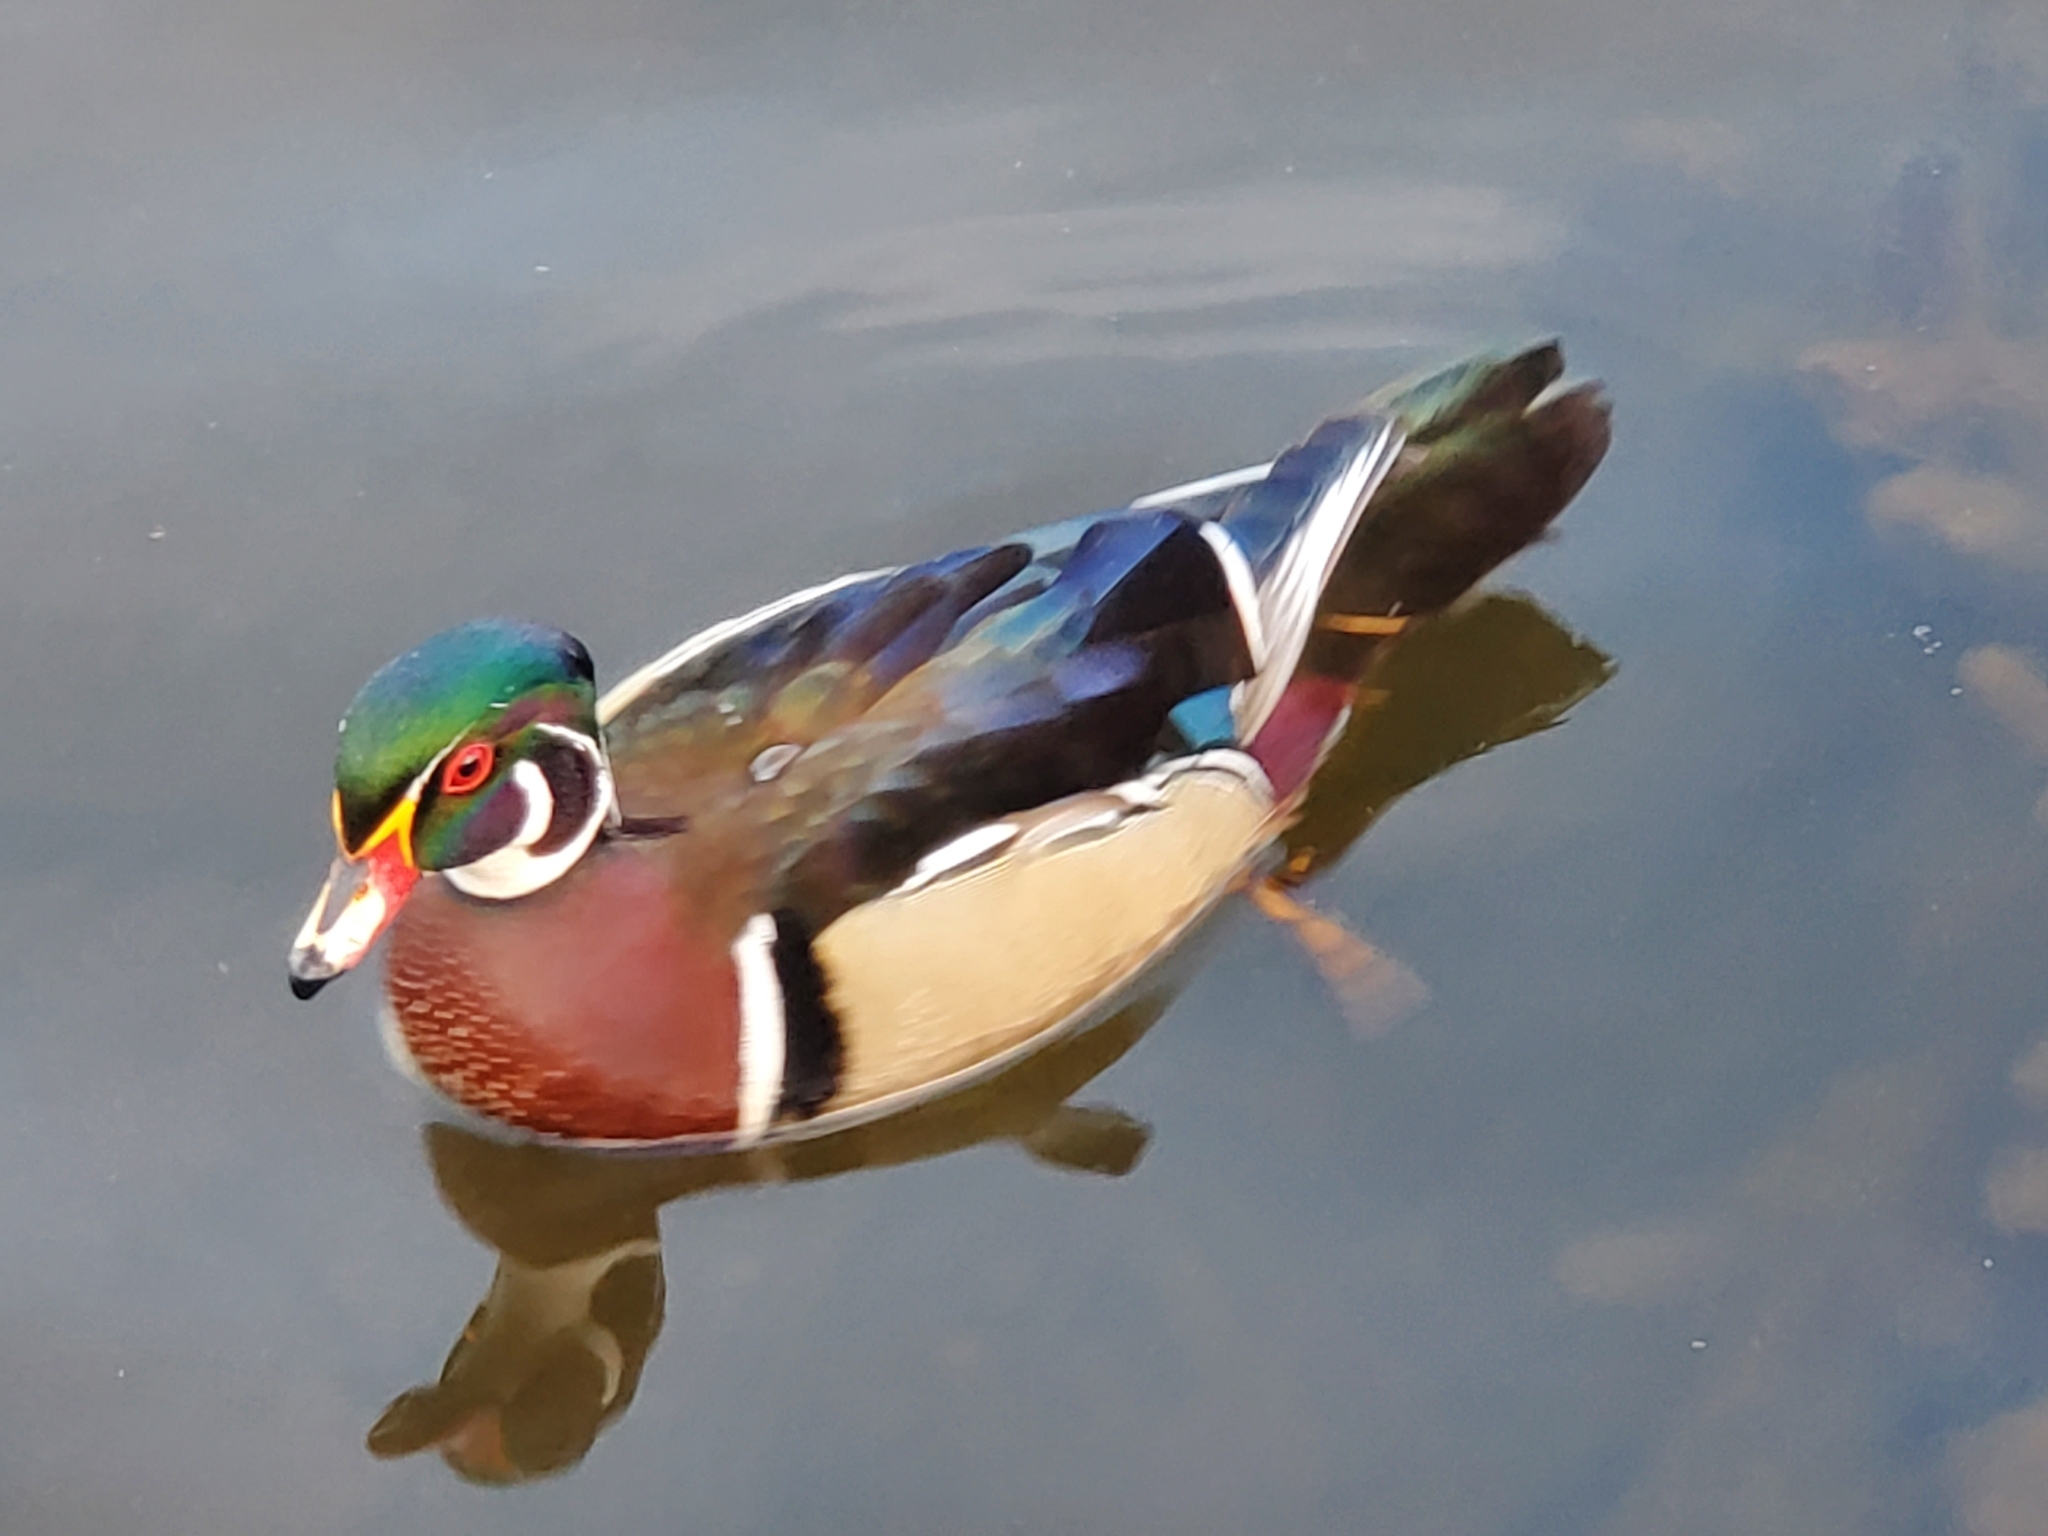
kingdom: Animalia
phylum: Chordata
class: Aves
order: Anseriformes
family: Anatidae
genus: Aix
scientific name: Aix sponsa
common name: Wood duck
